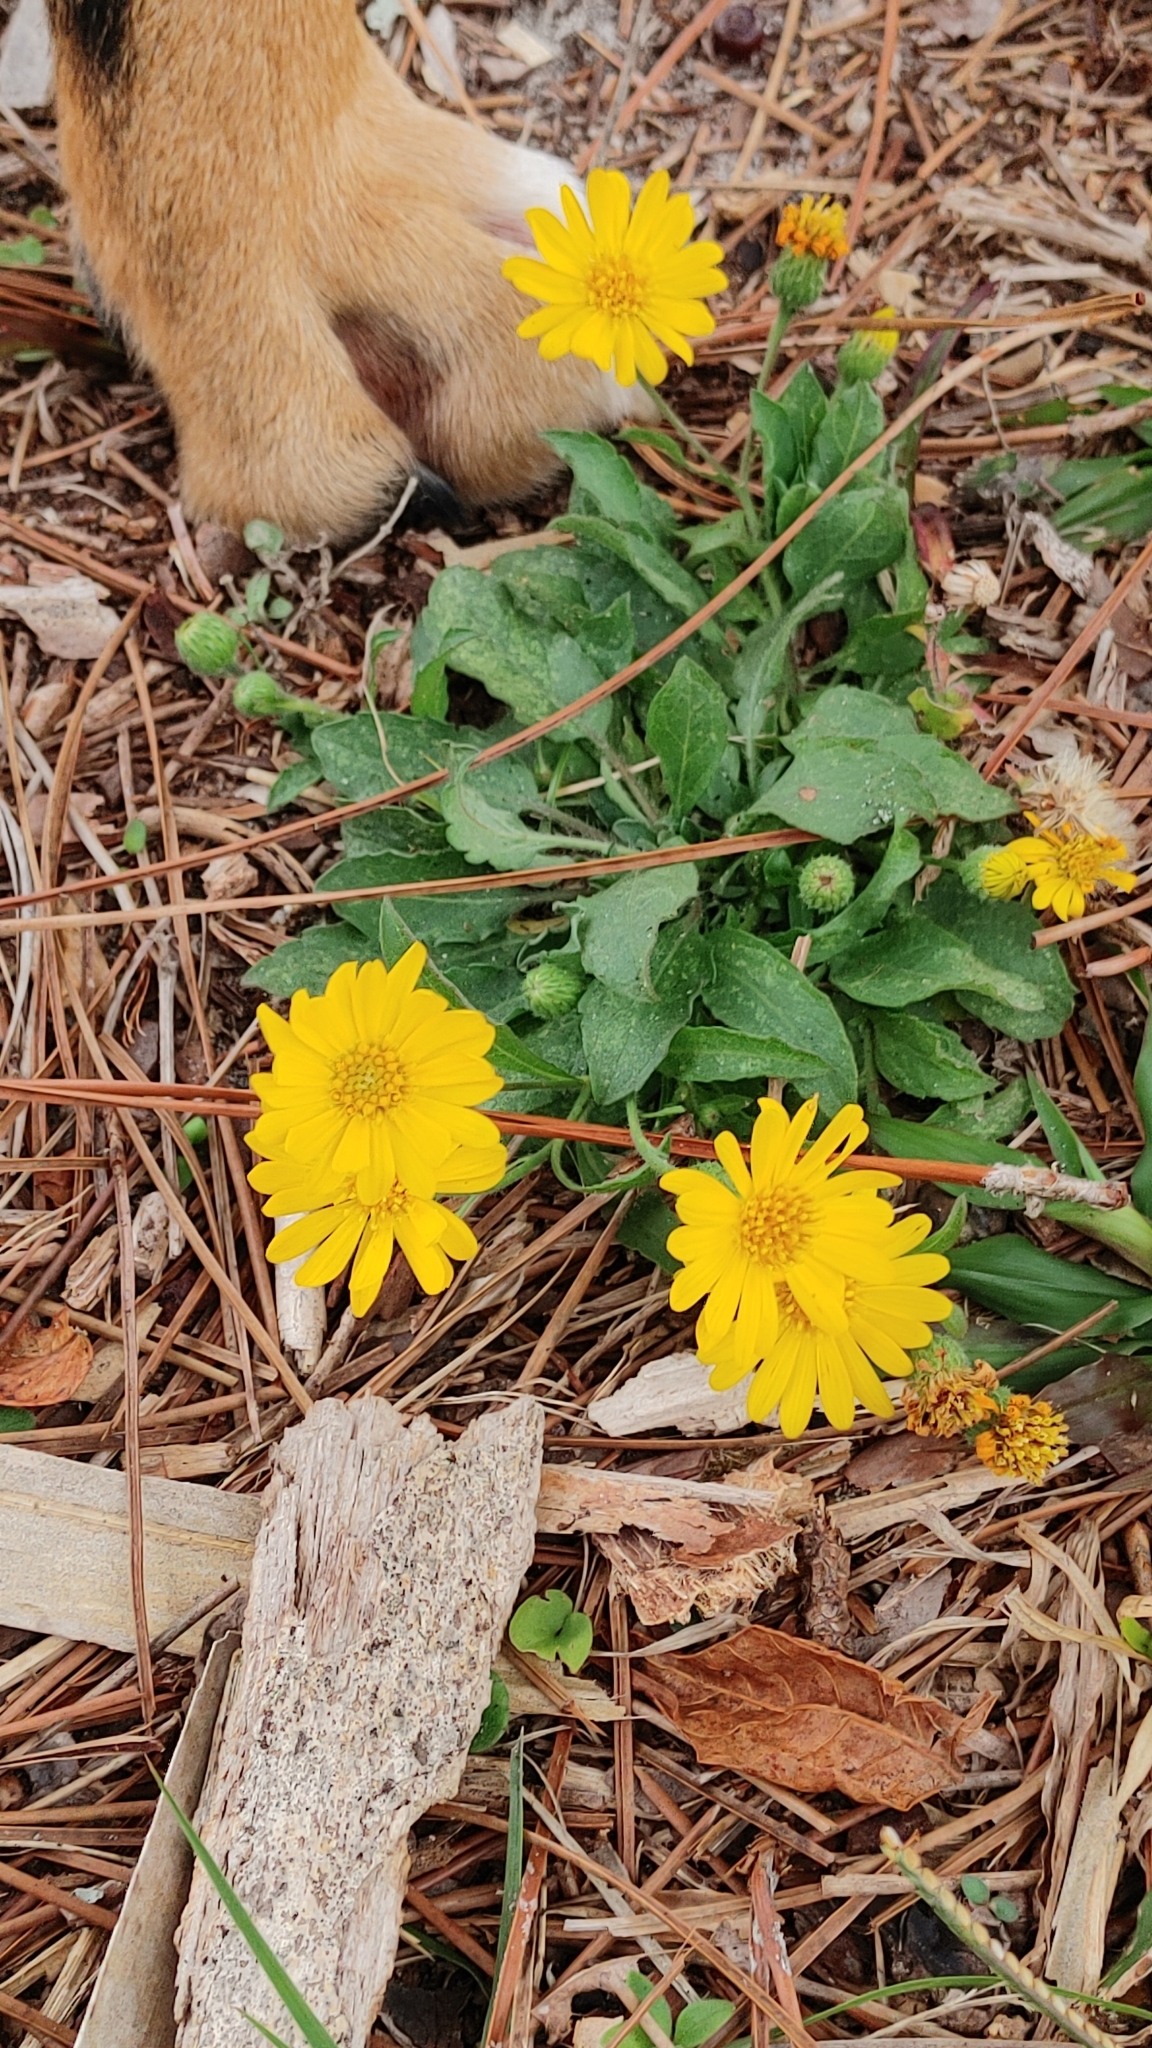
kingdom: Plantae
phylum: Tracheophyta
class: Magnoliopsida
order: Asterales
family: Asteraceae
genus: Heterotheca
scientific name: Heterotheca subaxillaris
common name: Camphorweed
